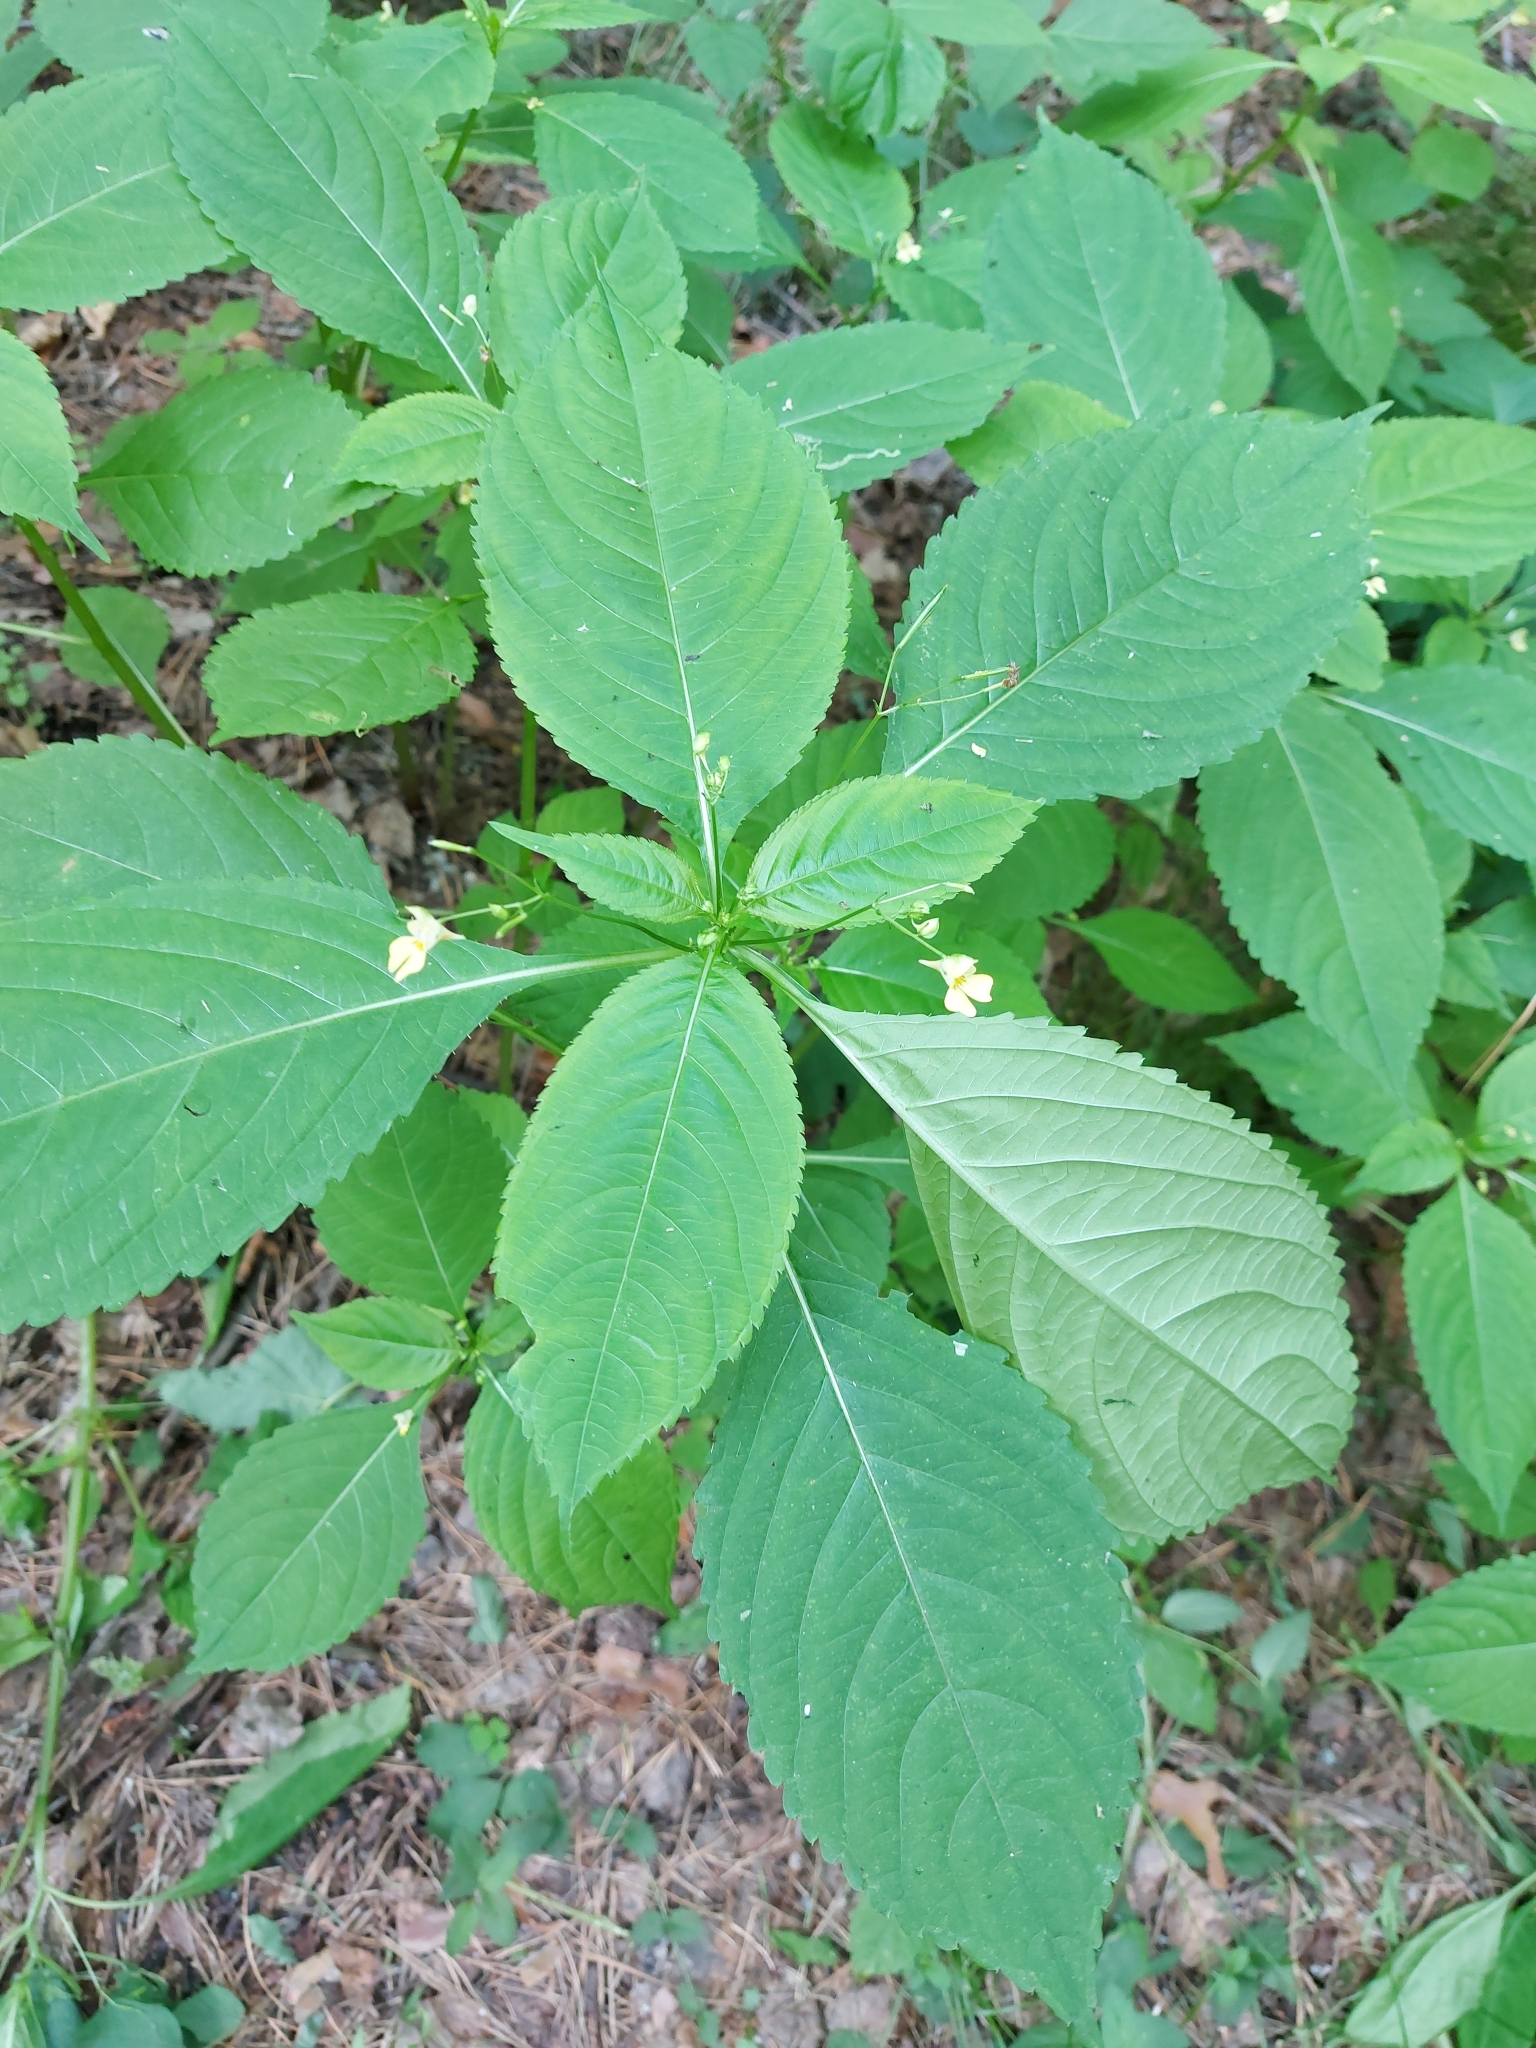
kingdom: Plantae
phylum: Tracheophyta
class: Magnoliopsida
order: Ericales
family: Balsaminaceae
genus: Impatiens
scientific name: Impatiens parviflora
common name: Small balsam
